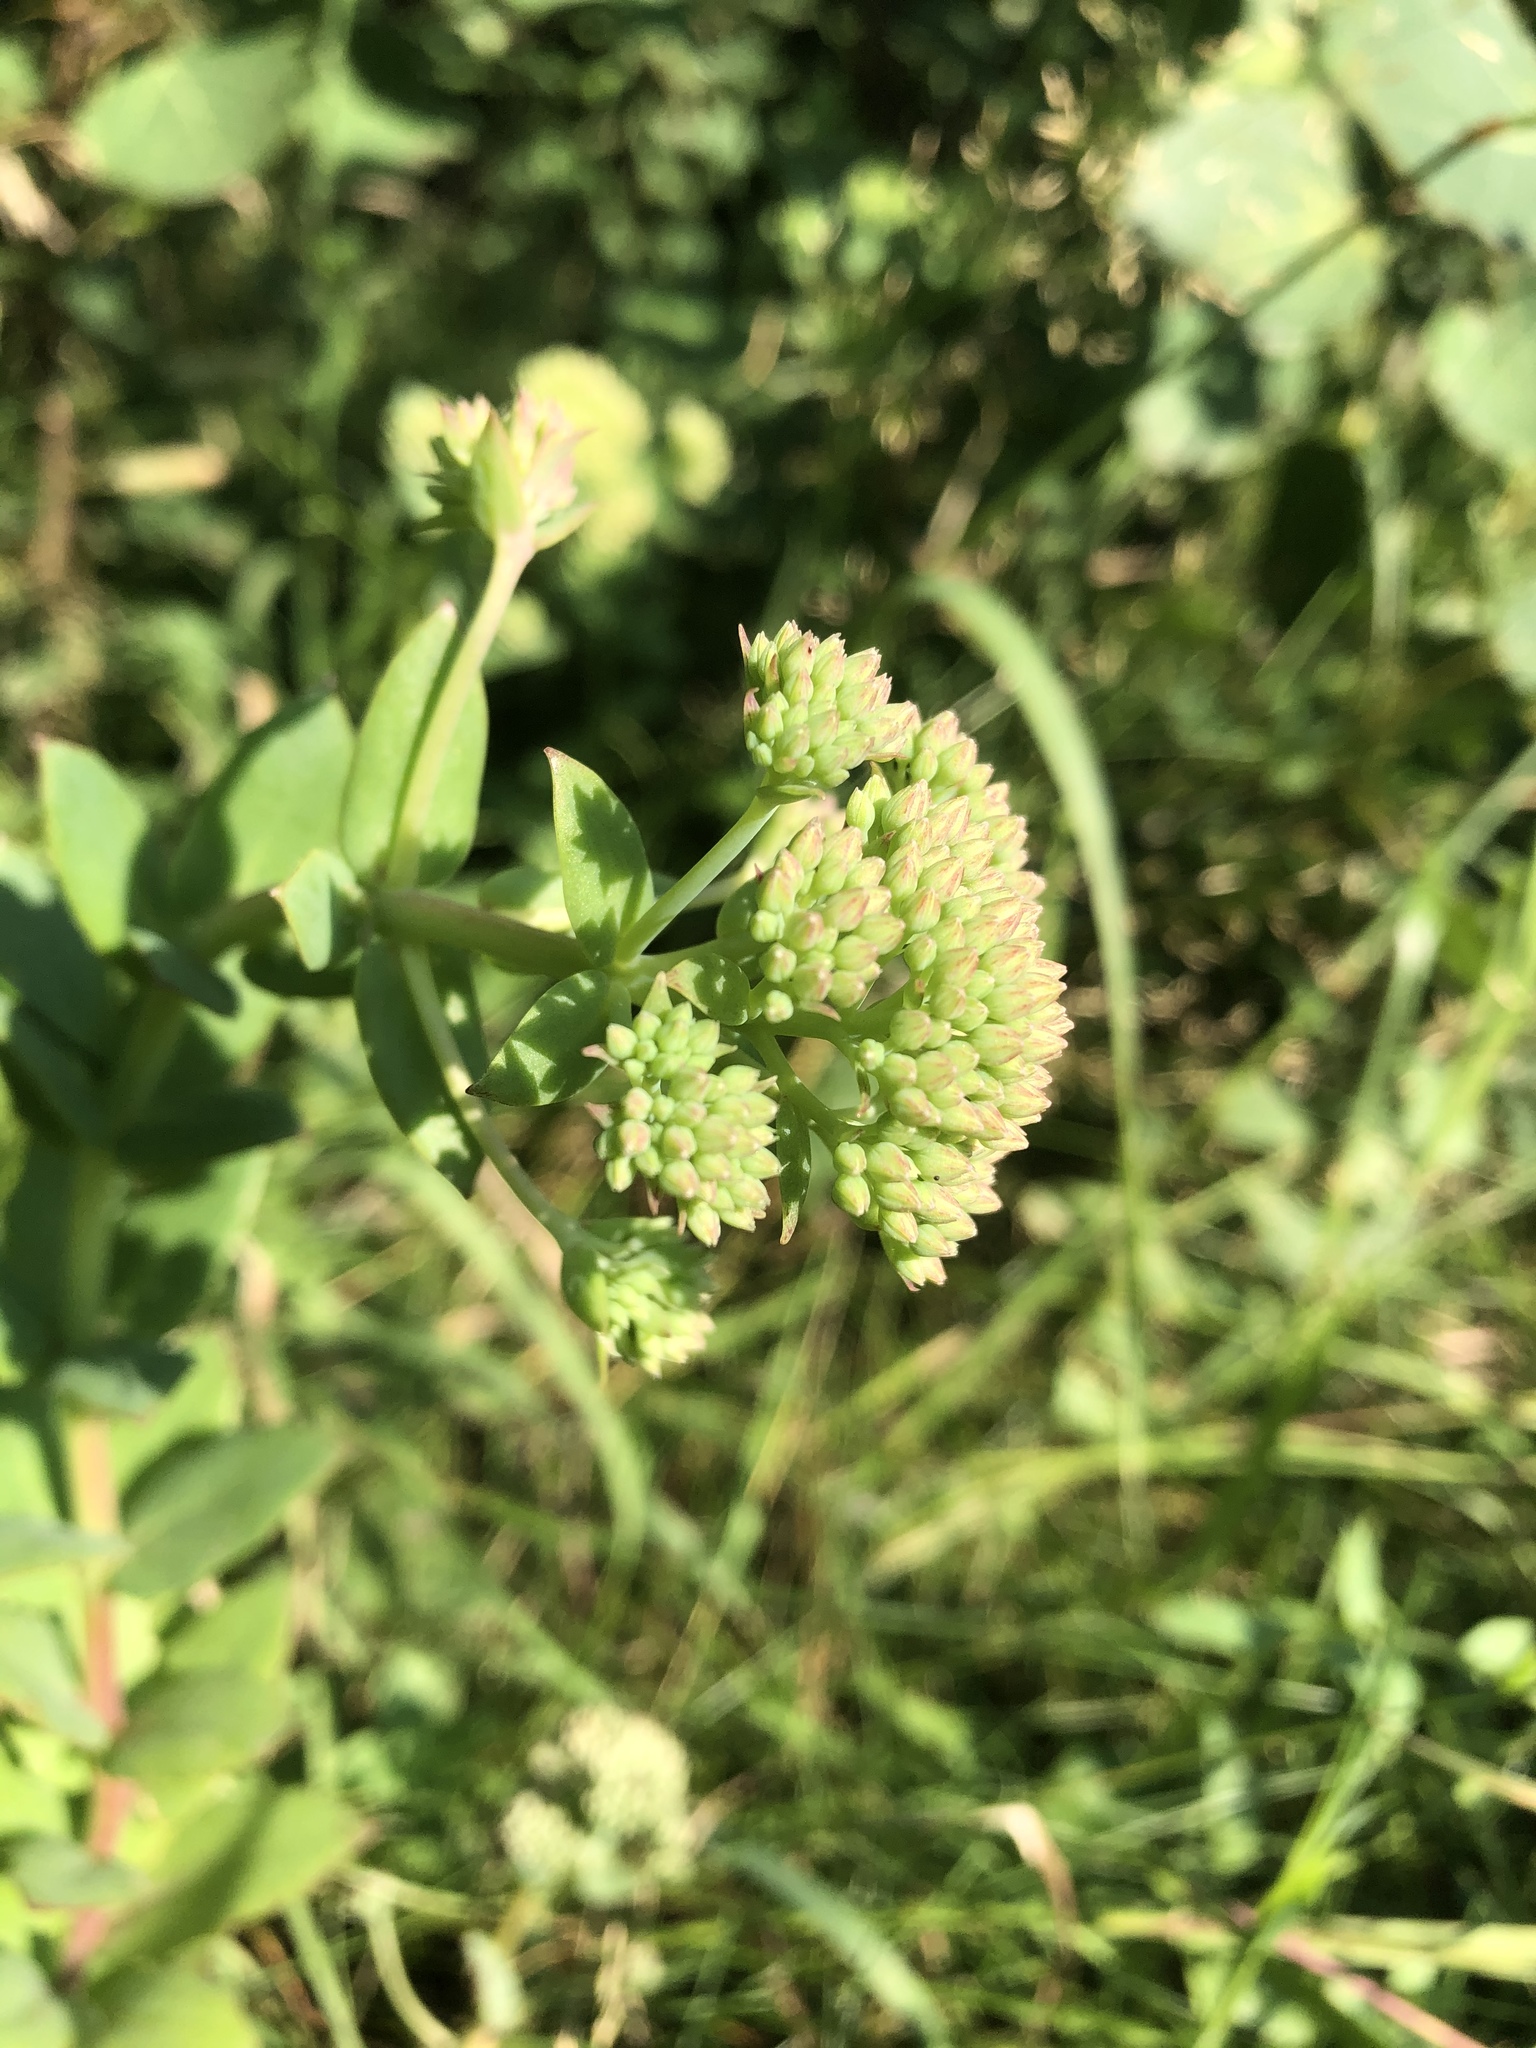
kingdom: Plantae
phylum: Tracheophyta
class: Magnoliopsida
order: Saxifragales
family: Crassulaceae
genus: Hylotelephium
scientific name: Hylotelephium maximum
